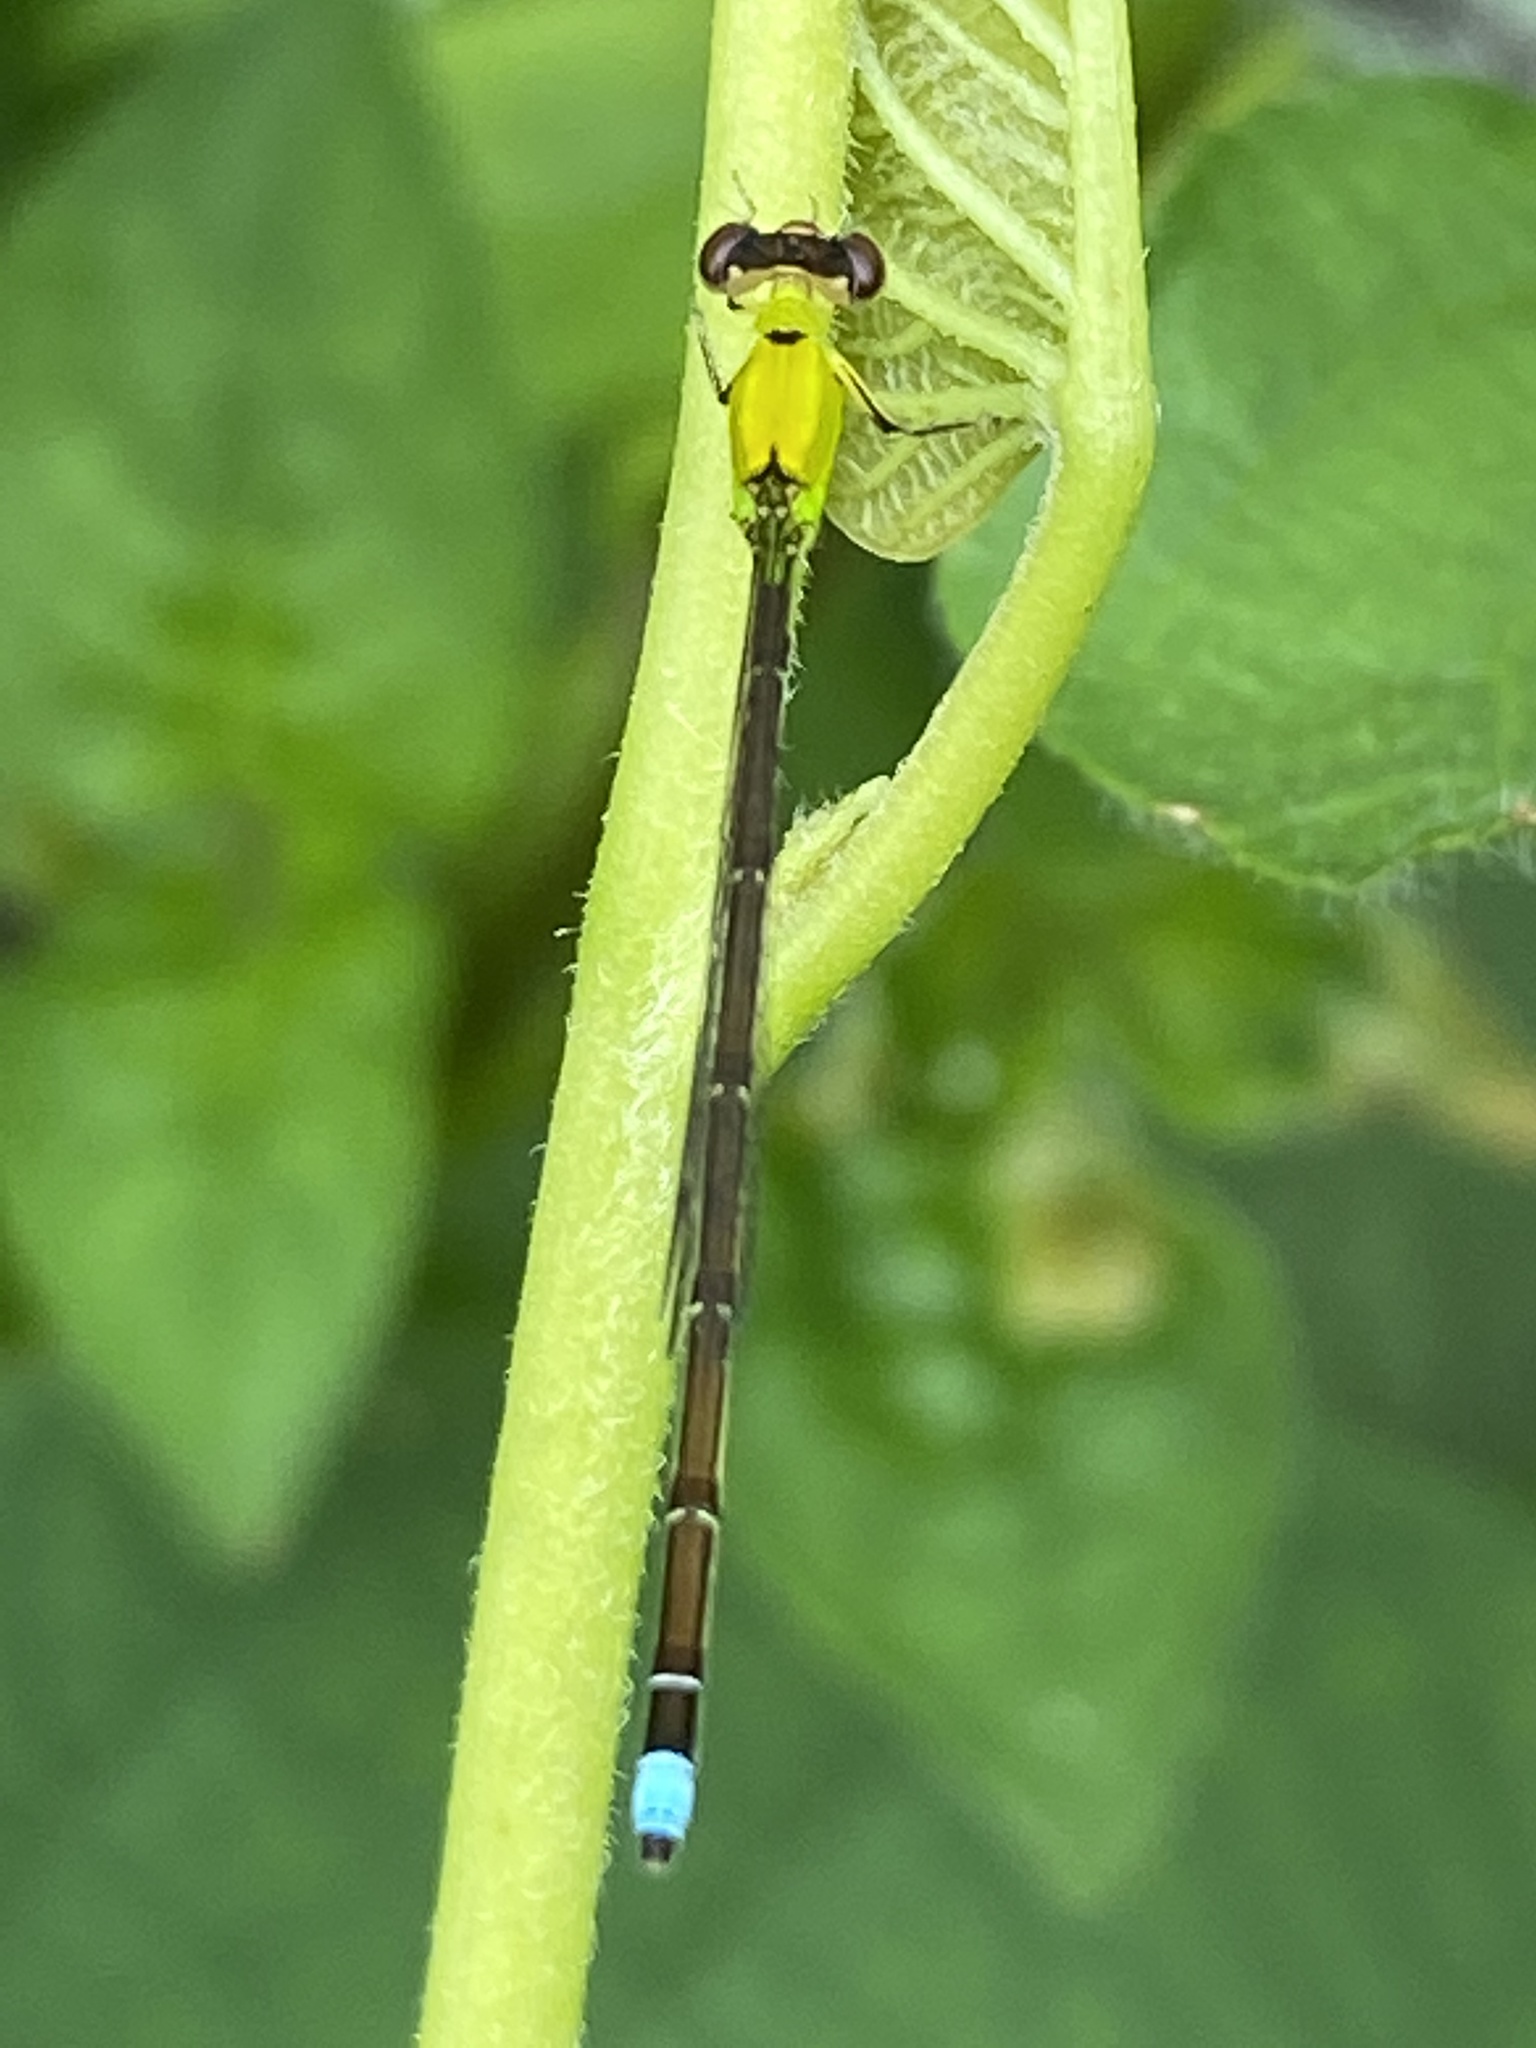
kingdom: Animalia
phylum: Arthropoda
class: Insecta
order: Odonata
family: Coenagrionidae
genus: Ischnura
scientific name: Ischnura capreolus
